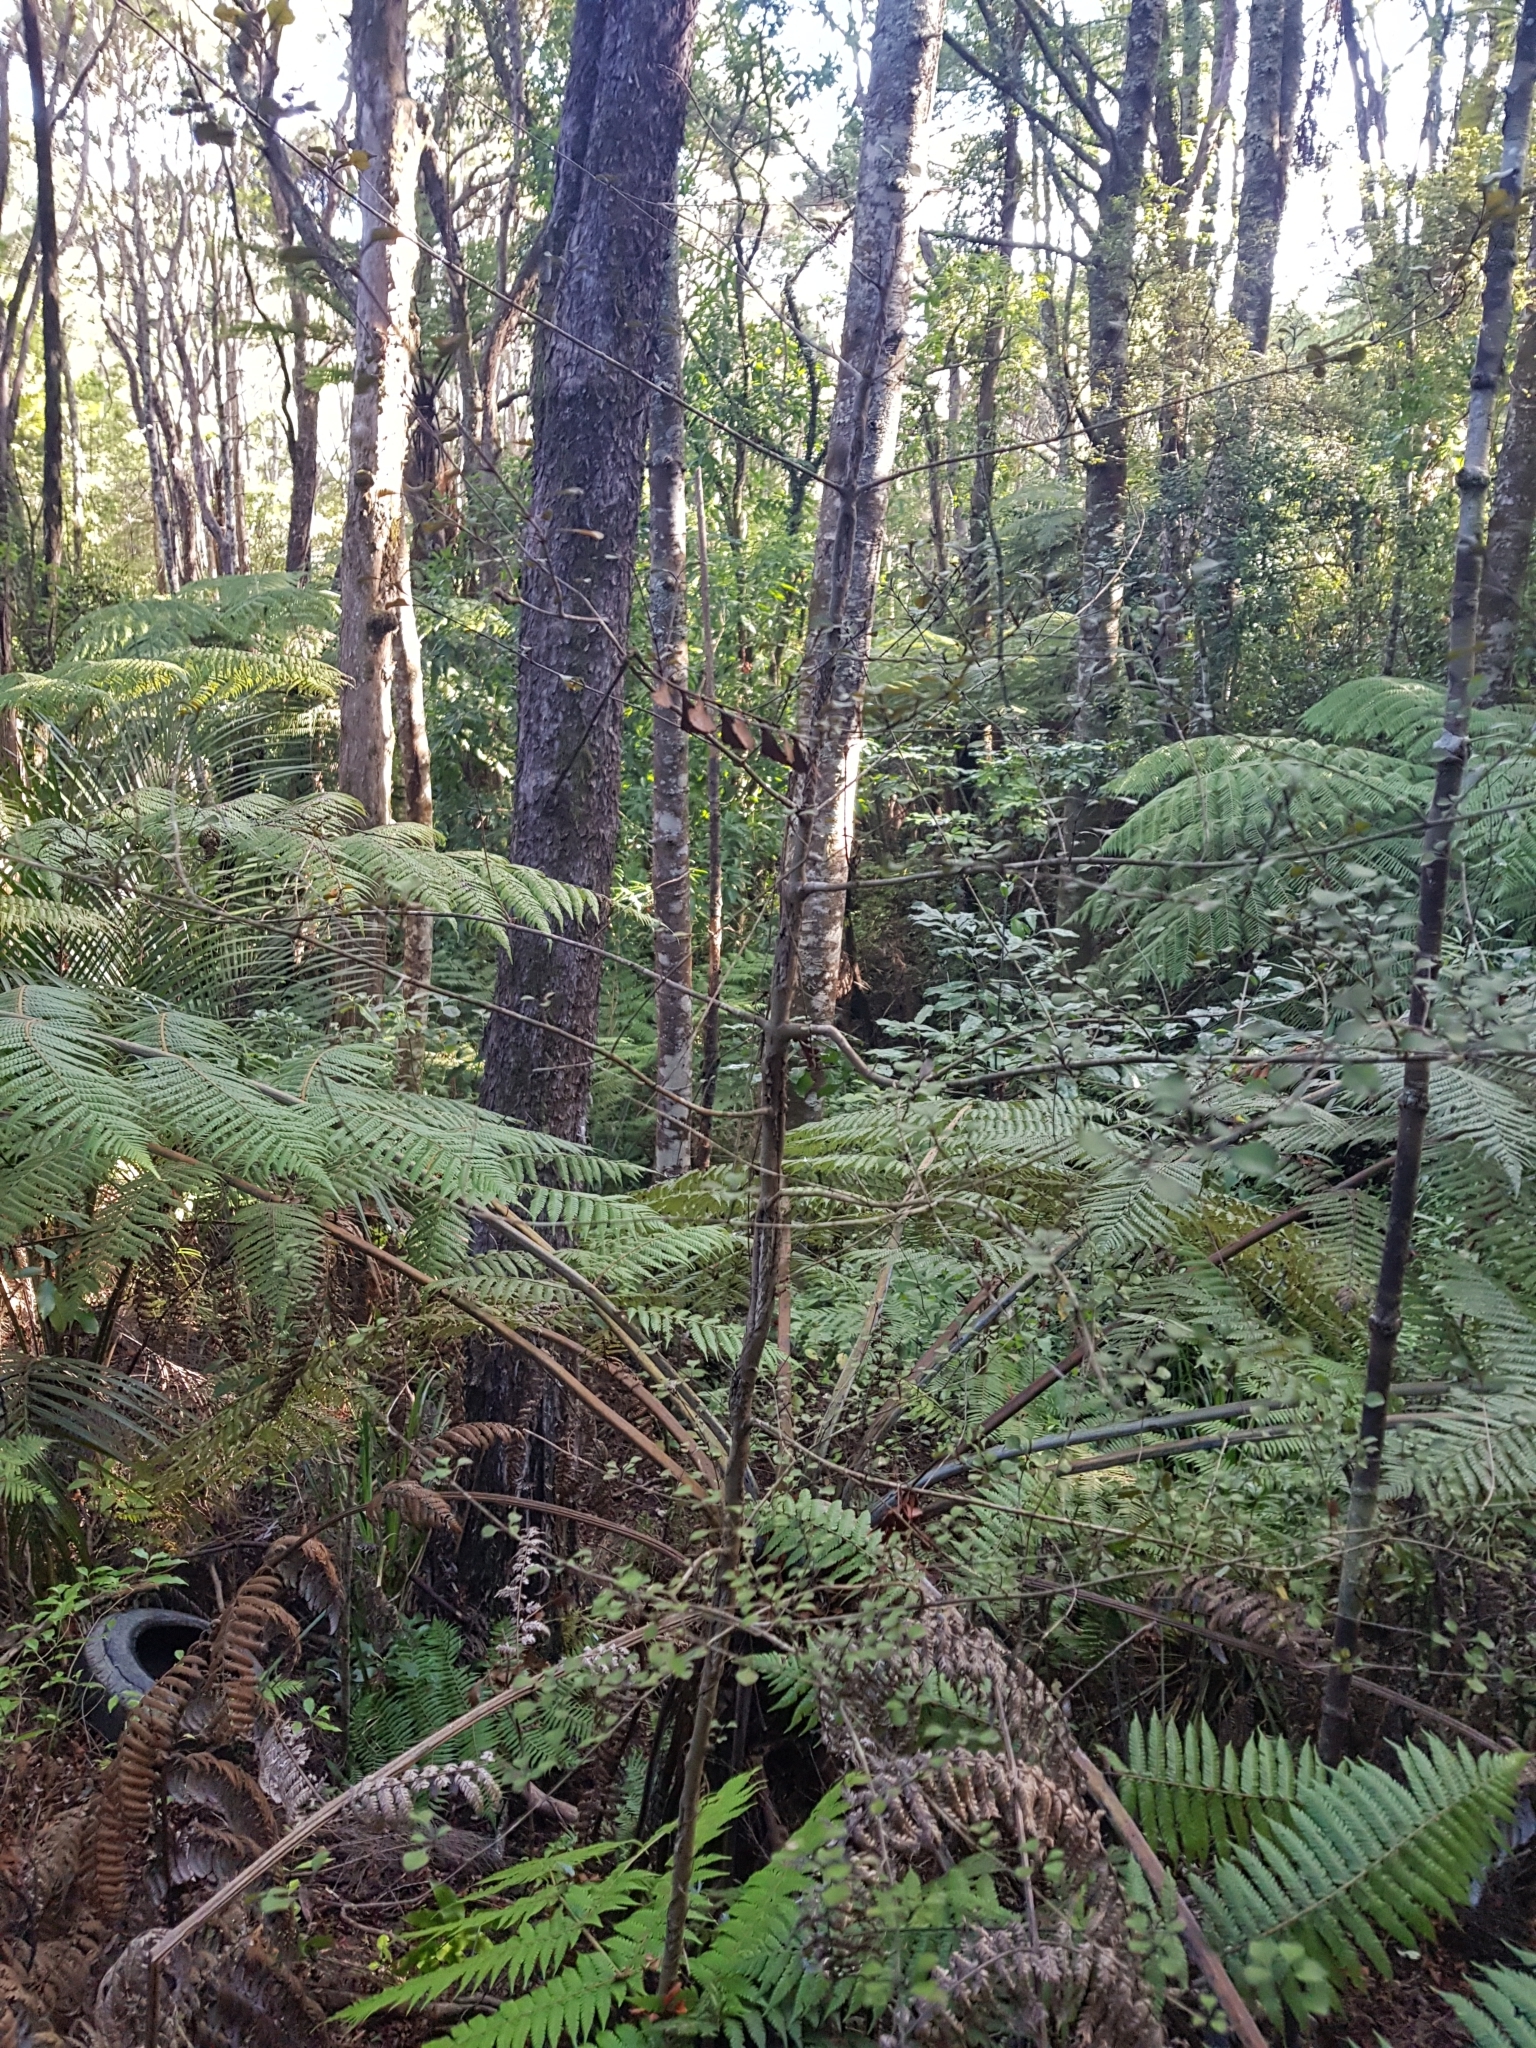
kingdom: Plantae
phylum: Tracheophyta
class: Magnoliopsida
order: Gentianales
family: Rubiaceae
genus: Coprosma
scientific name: Coprosma arborea
